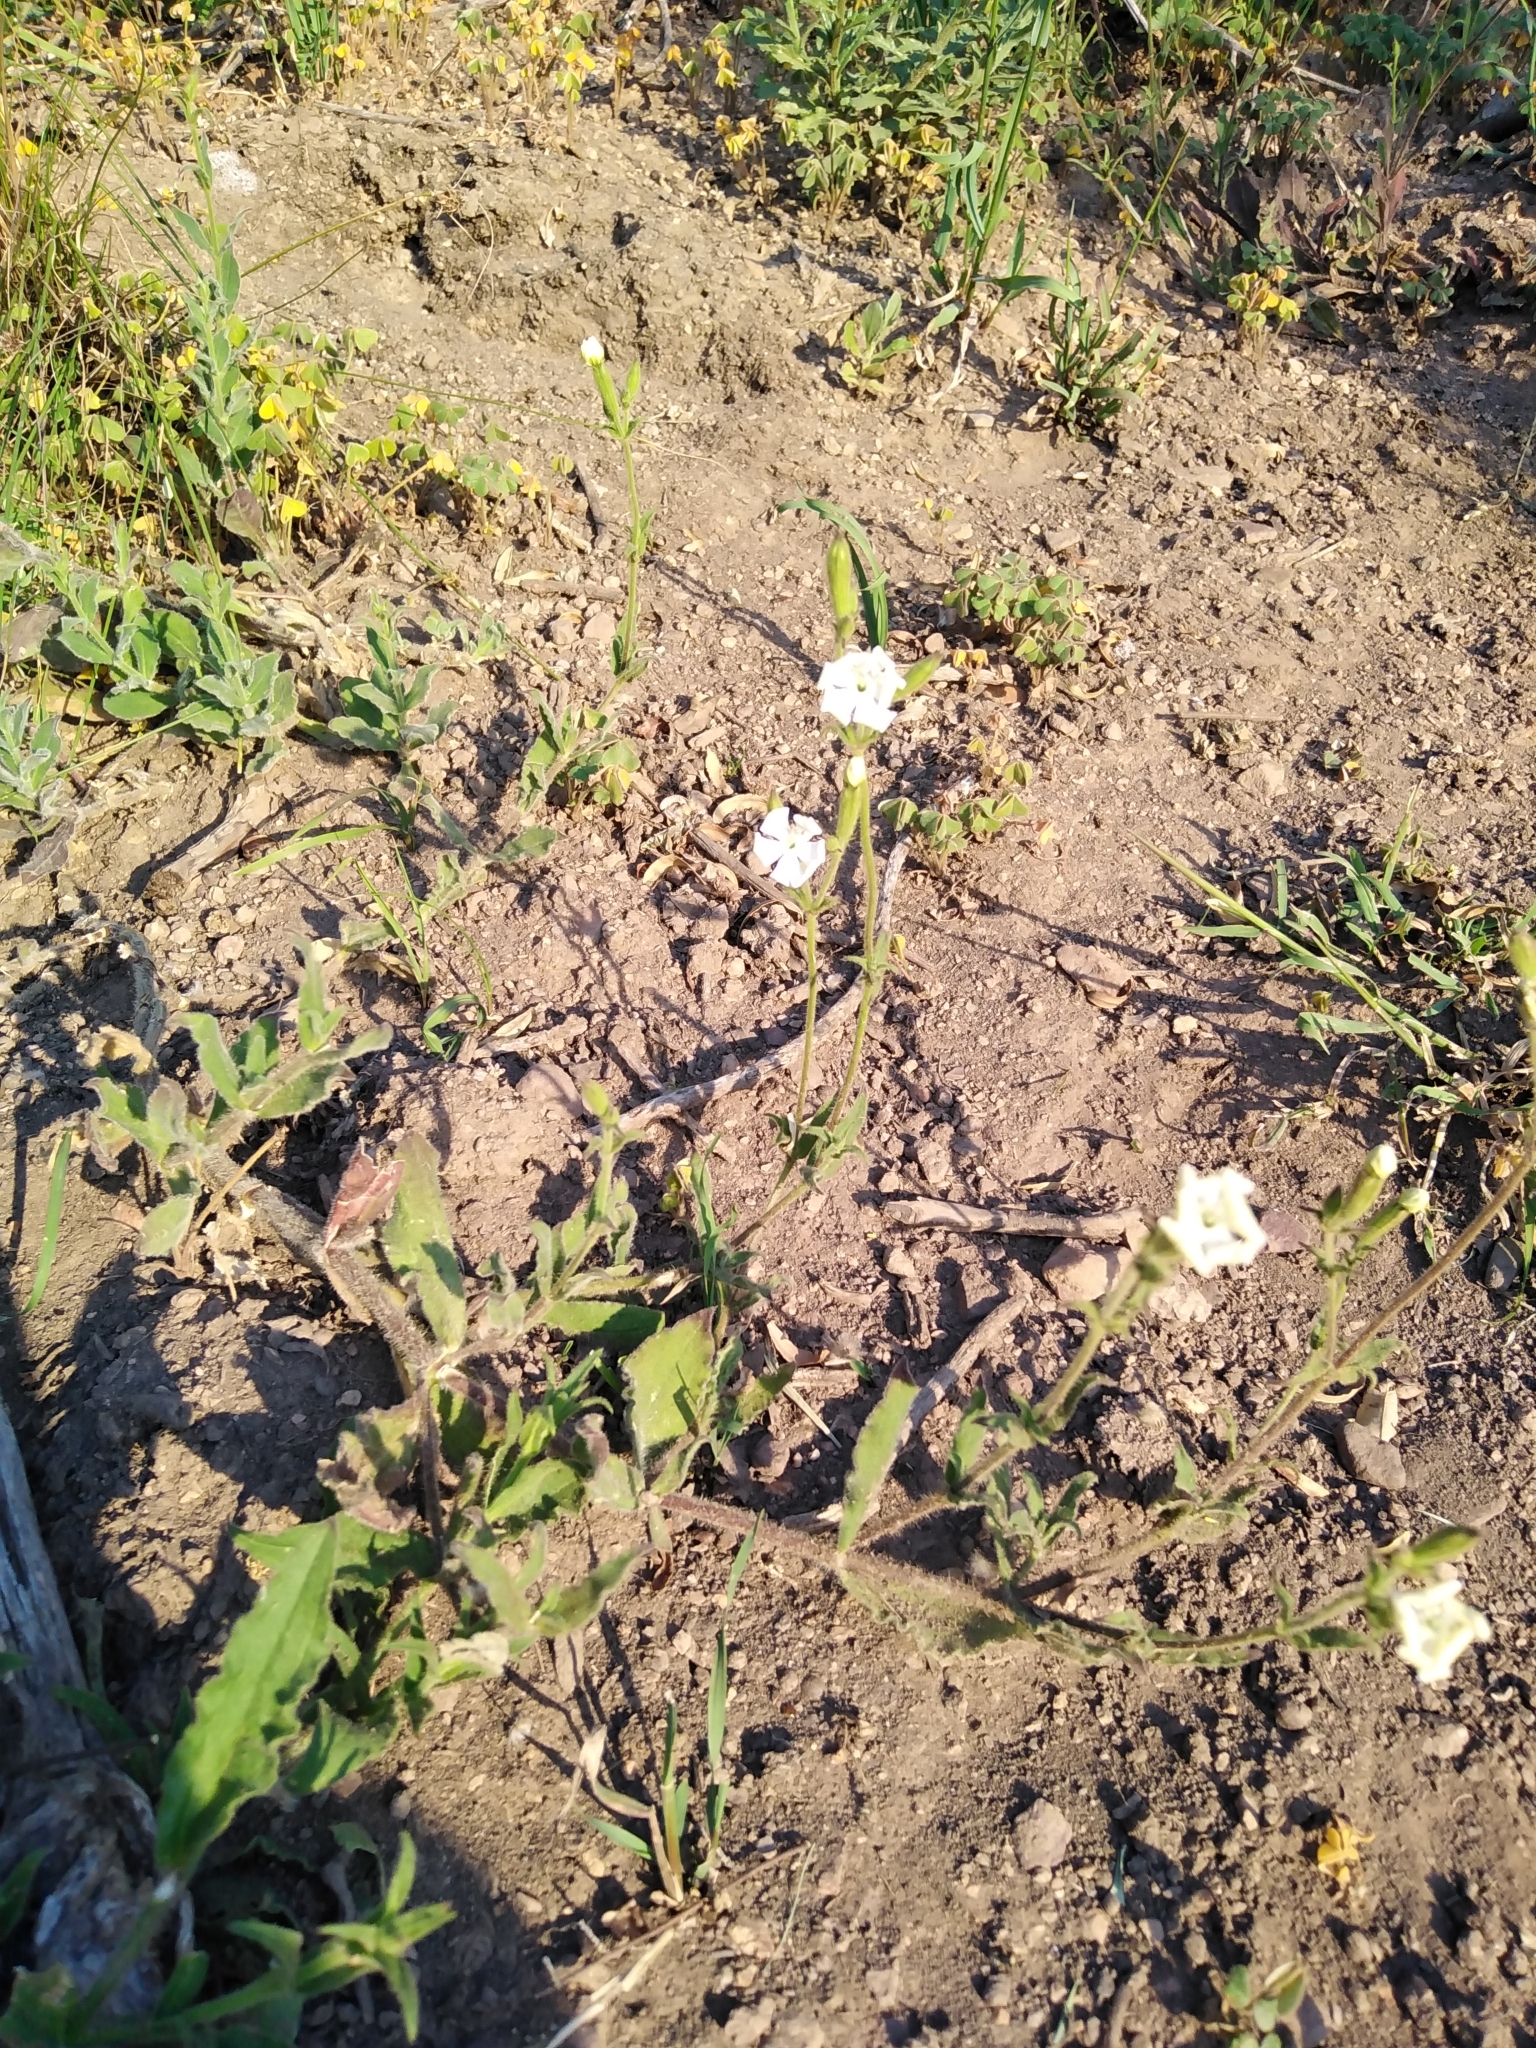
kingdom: Plantae
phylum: Tracheophyta
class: Magnoliopsida
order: Caryophyllales
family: Caryophyllaceae
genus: Silene
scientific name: Silene undulata
